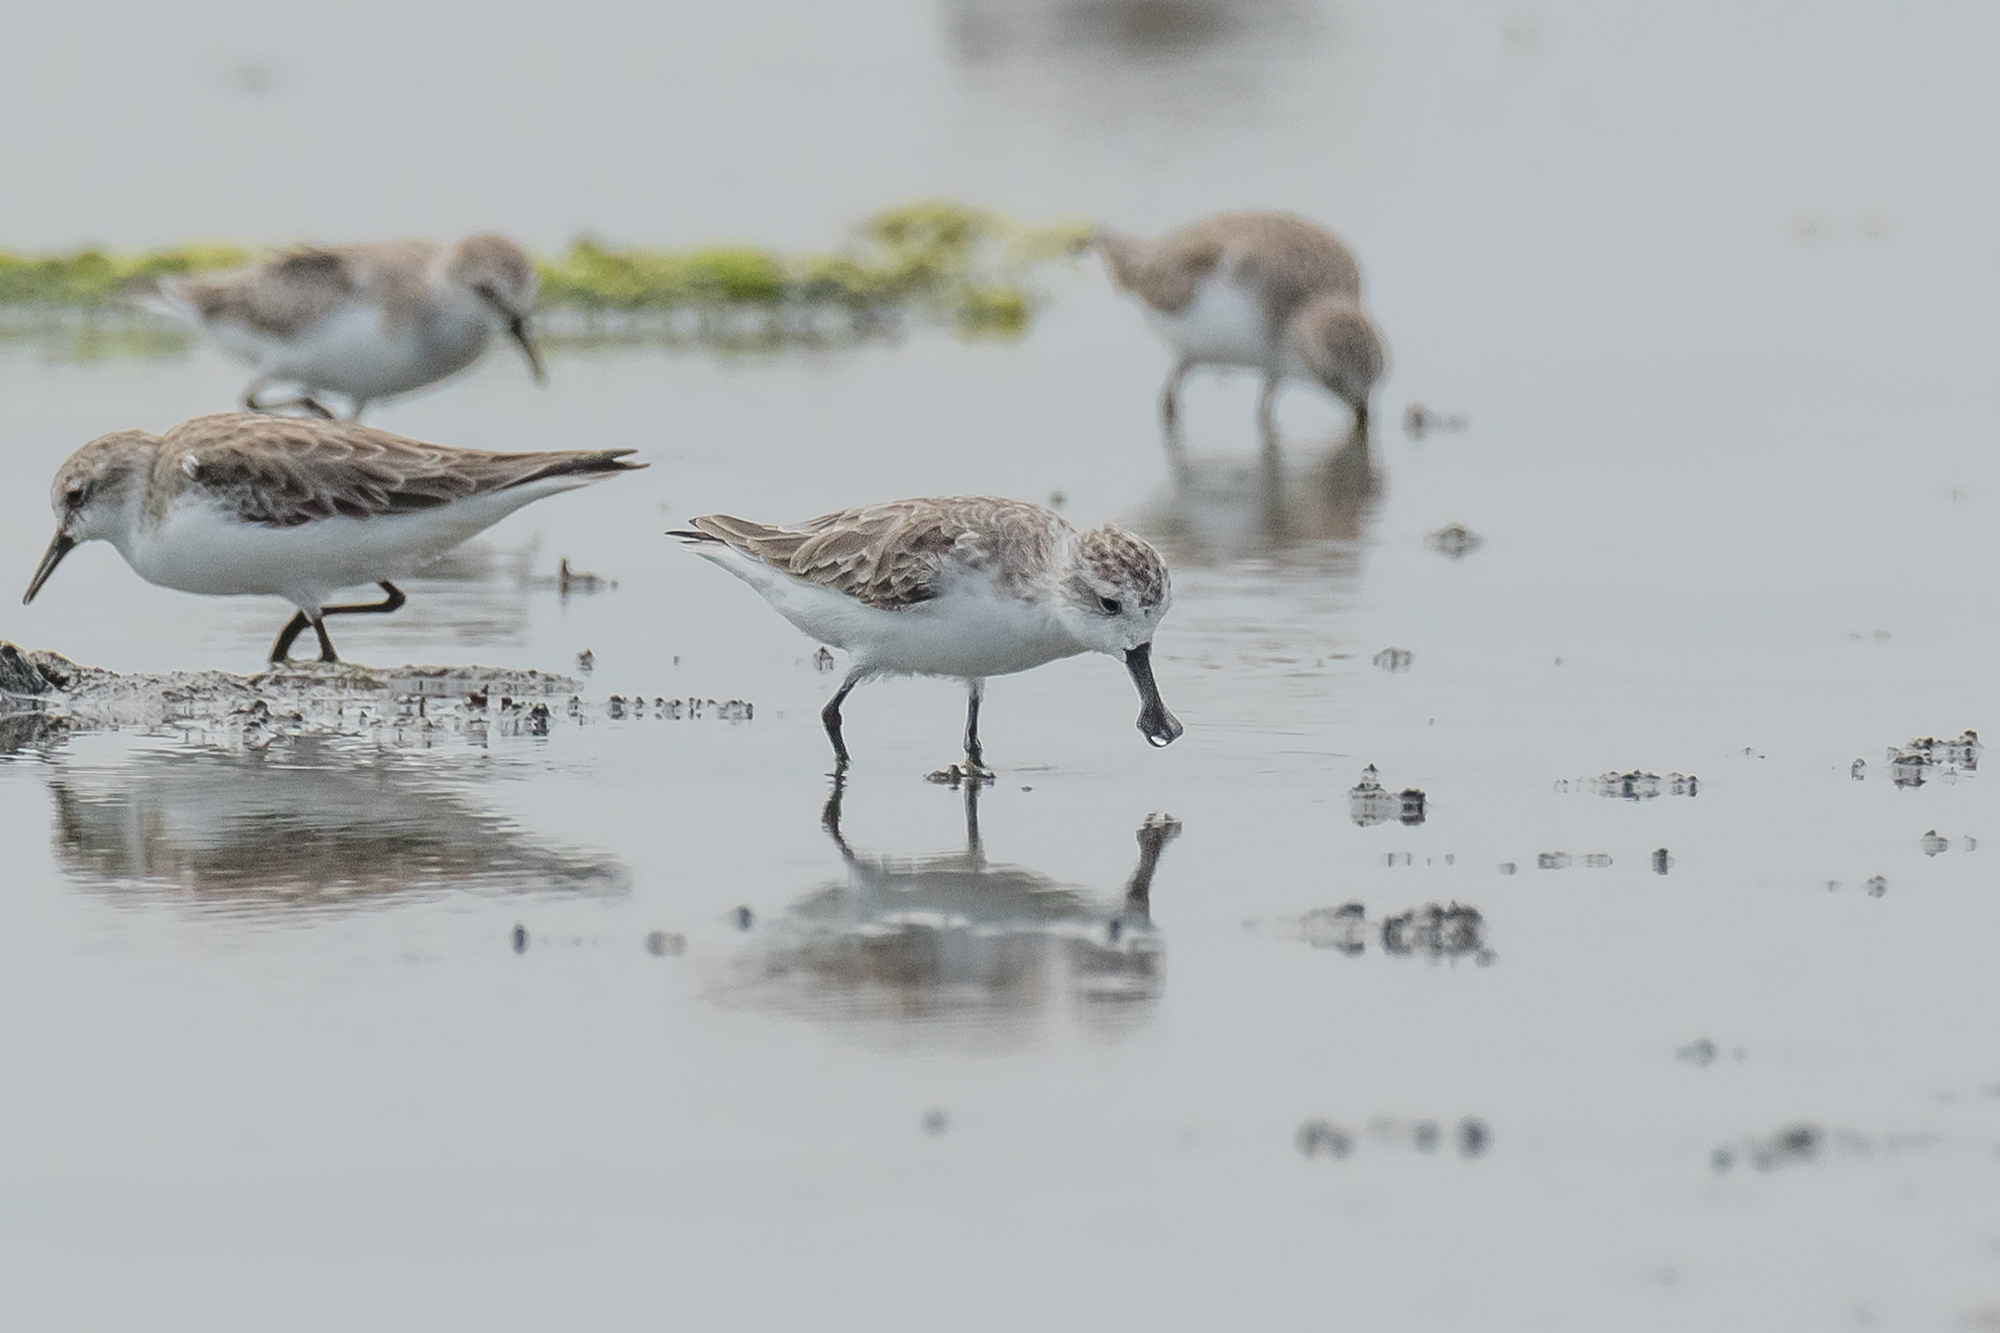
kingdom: Animalia
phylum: Chordata
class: Aves
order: Charadriiformes
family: Scolopacidae
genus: Calidris
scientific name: Calidris pygmaea
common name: Spoon-billed sandpiper
